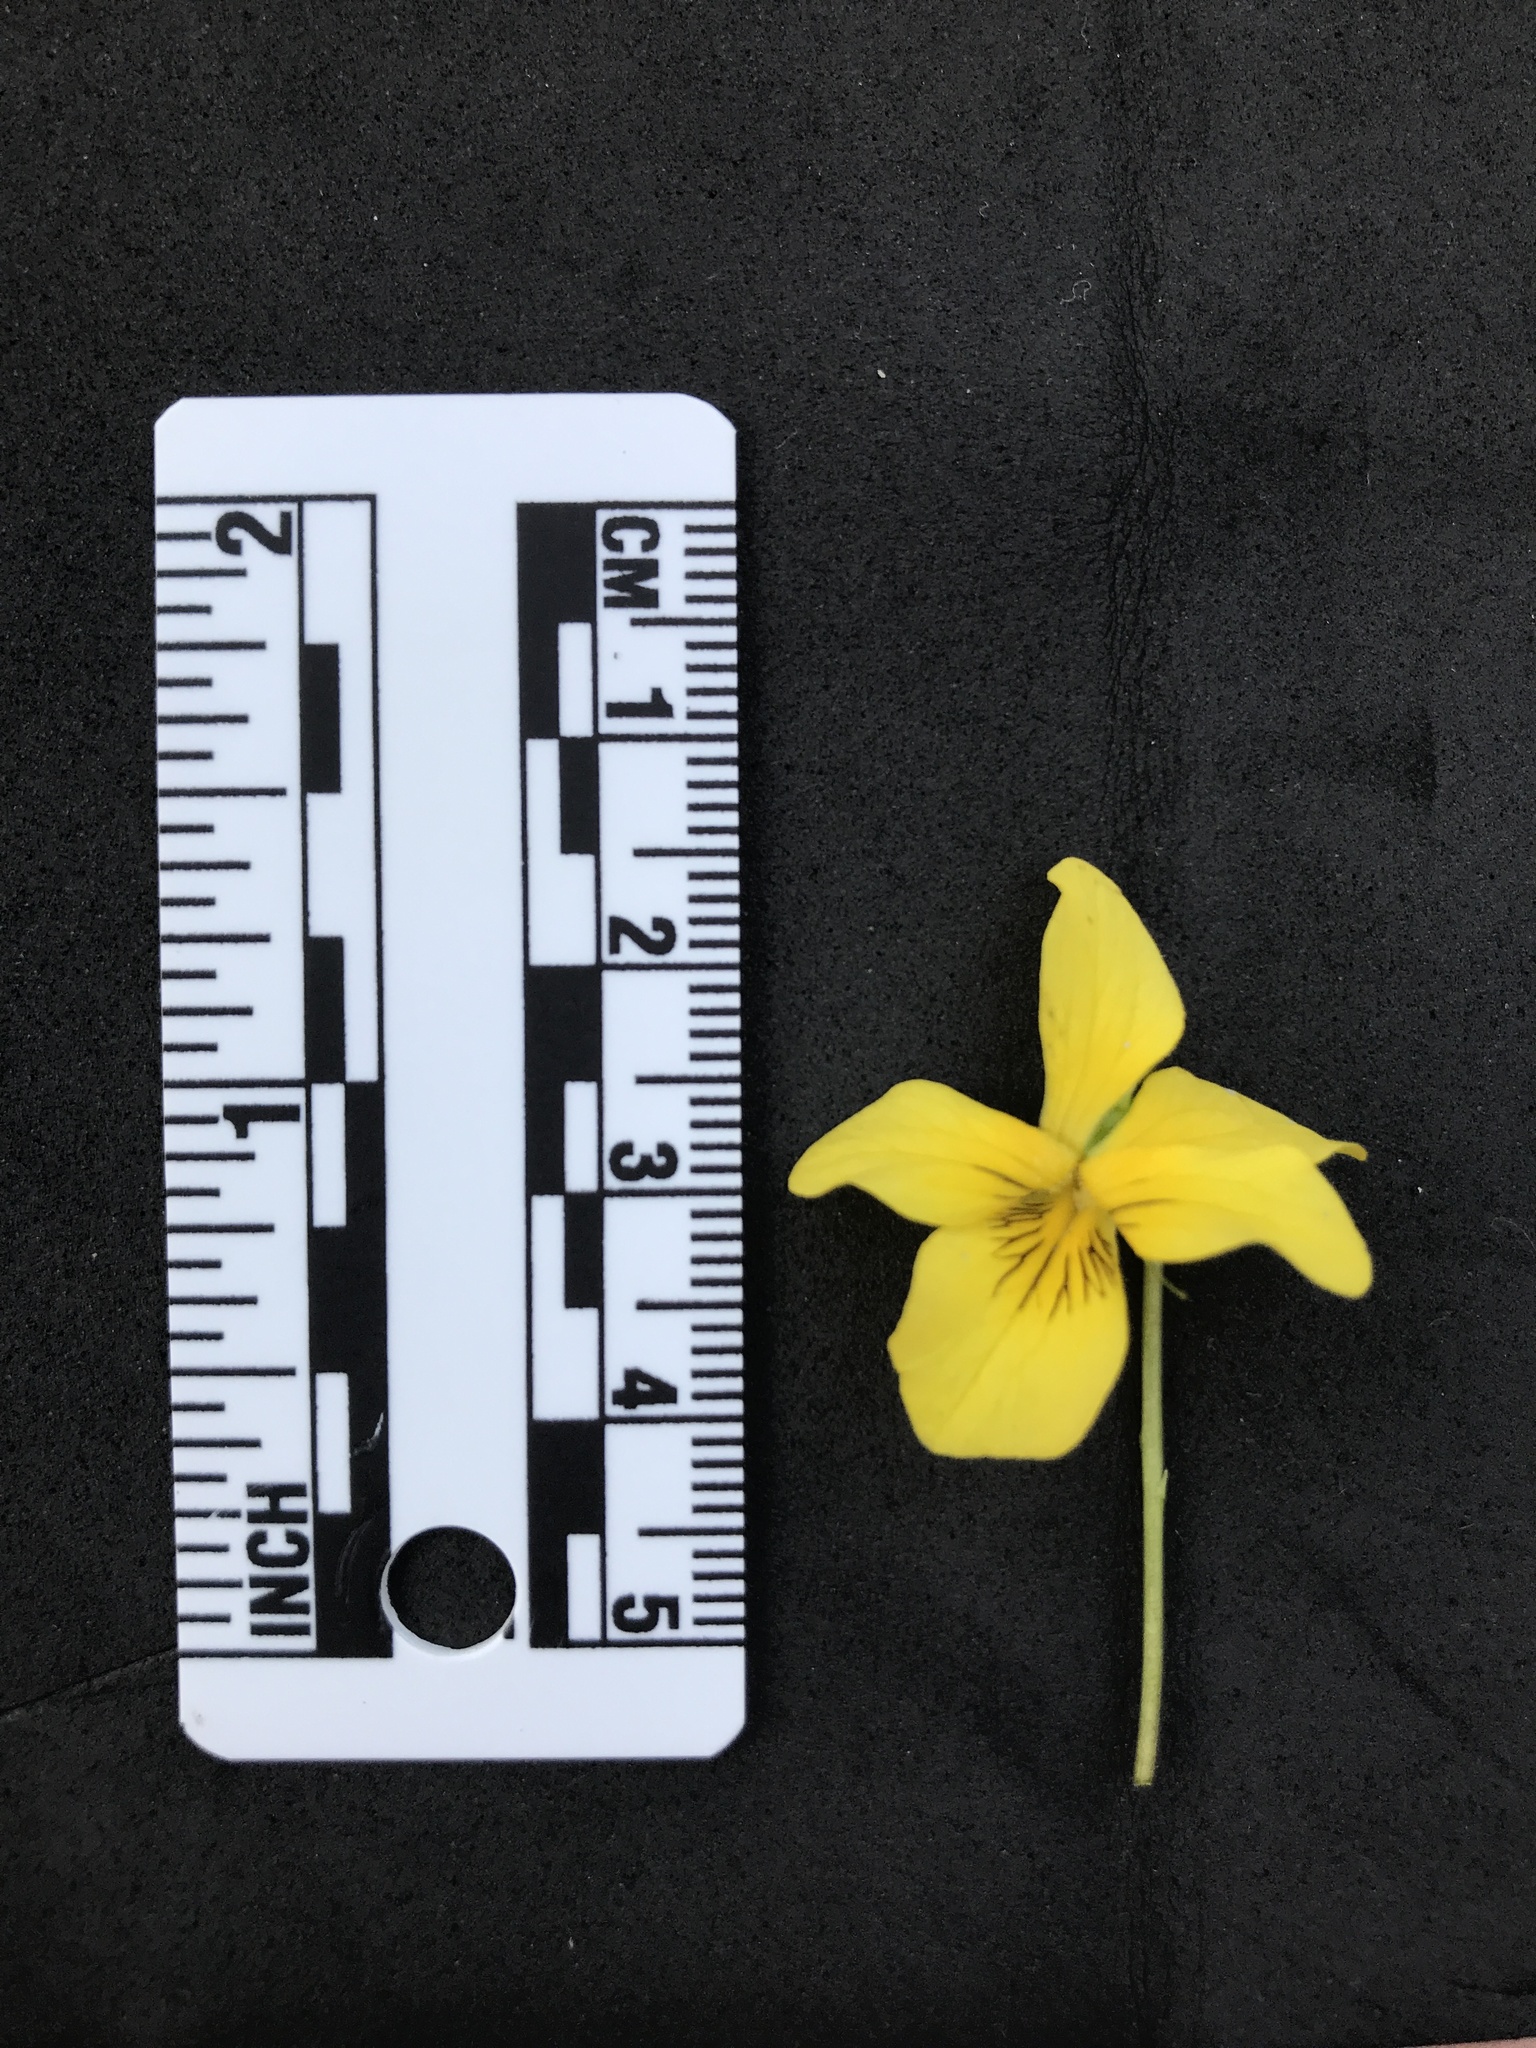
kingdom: Plantae
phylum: Tracheophyta
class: Magnoliopsida
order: Malpighiales
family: Violaceae
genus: Viola
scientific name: Viola glabella
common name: Stream violet
